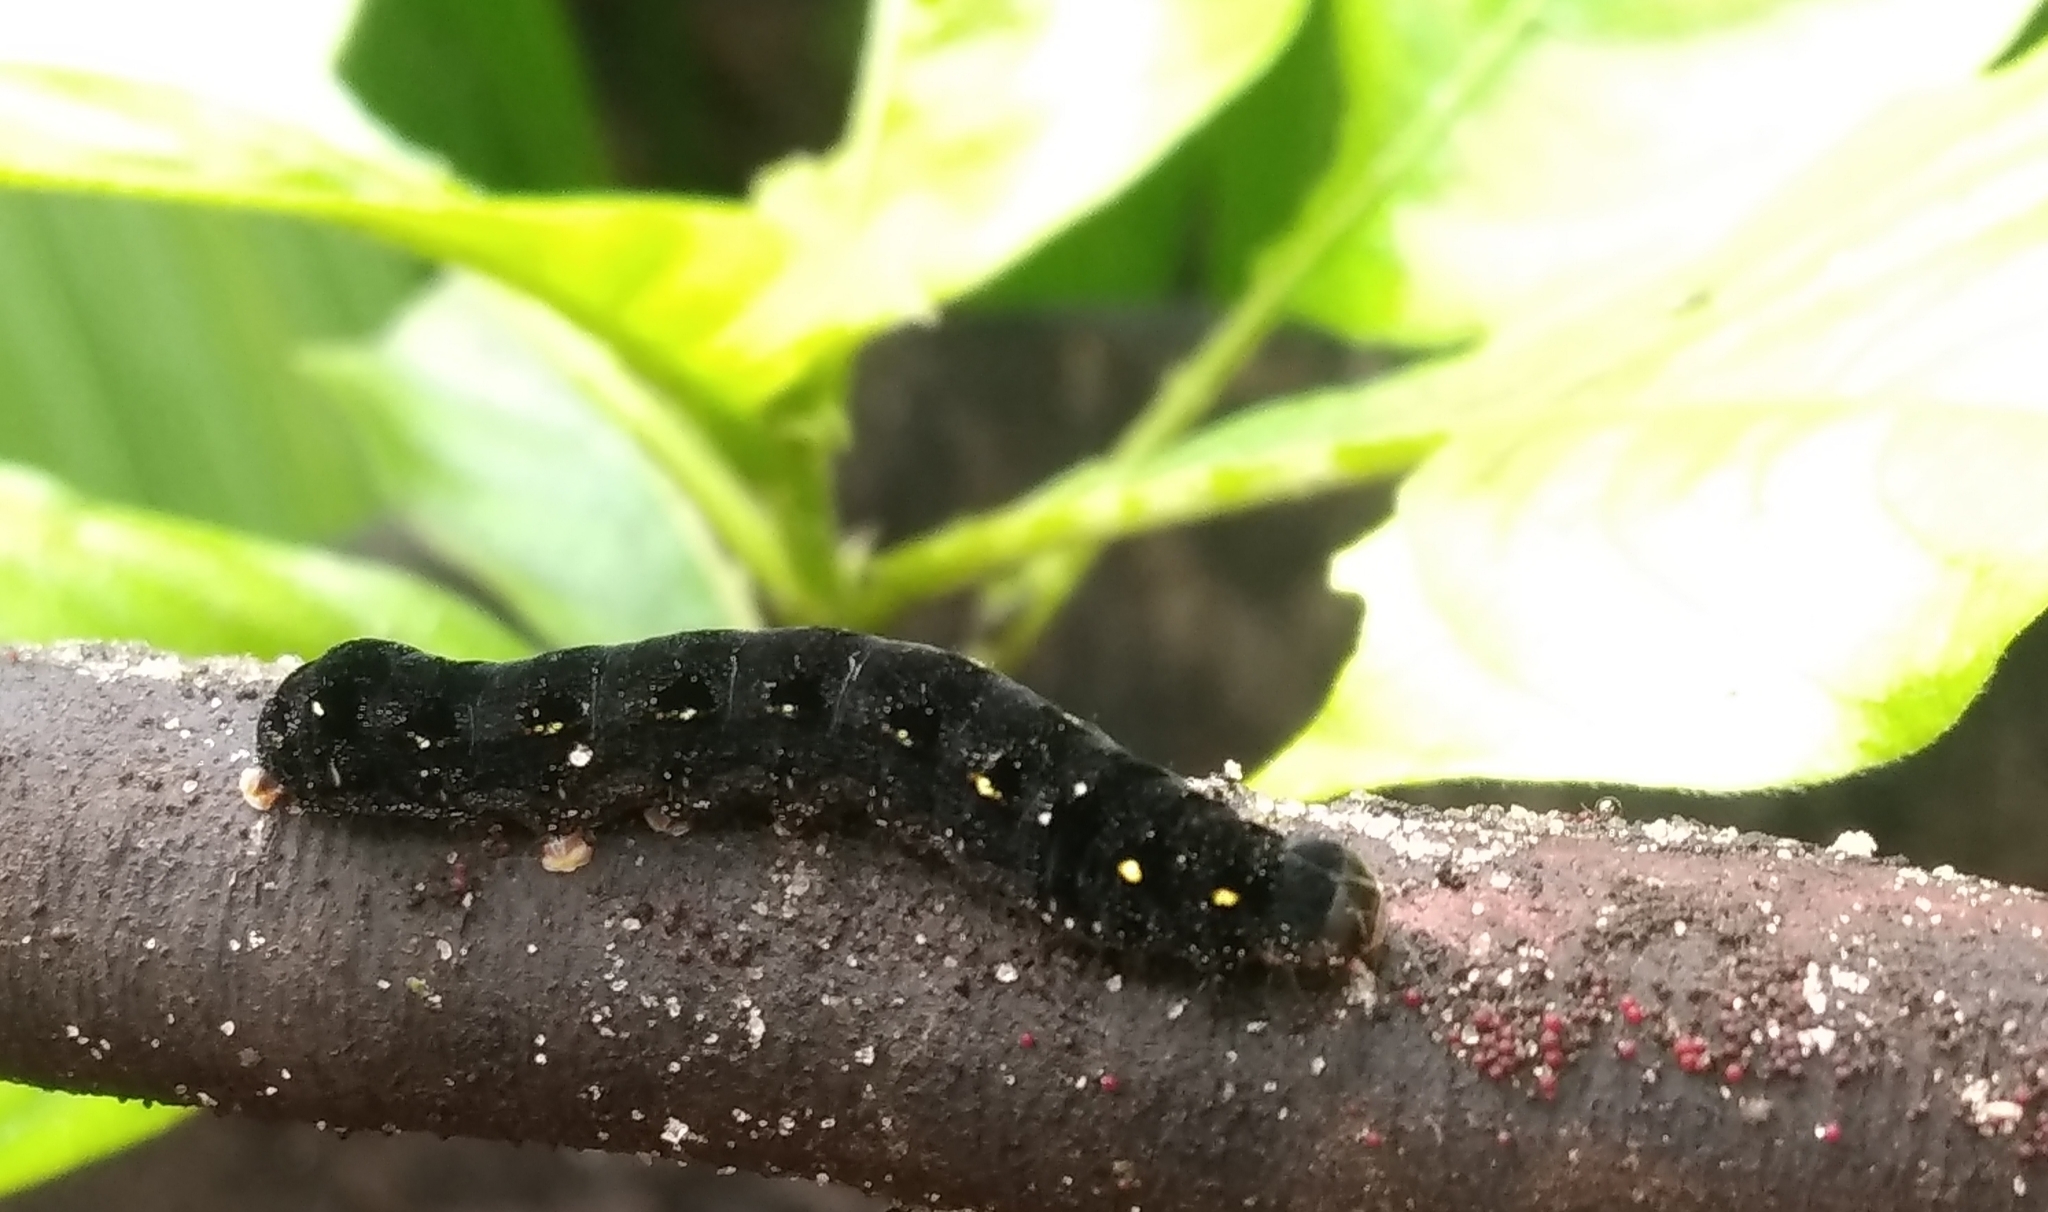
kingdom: Animalia
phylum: Arthropoda
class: Insecta
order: Lepidoptera
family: Noctuidae
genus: Spodoptera
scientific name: Spodoptera litura
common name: Asian cotton leafworm
